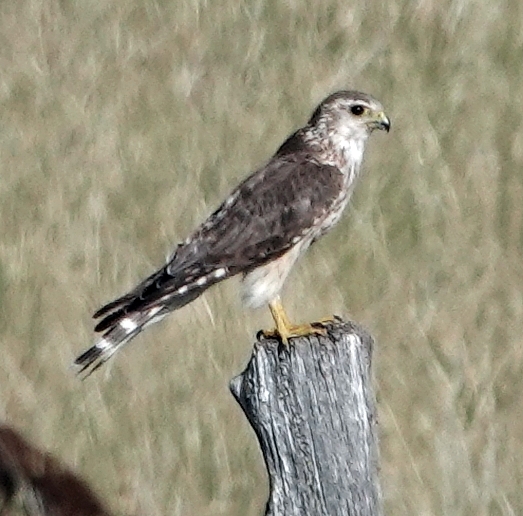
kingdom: Animalia
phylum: Chordata
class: Aves
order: Falconiformes
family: Falconidae
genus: Falco
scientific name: Falco columbarius
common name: Merlin
